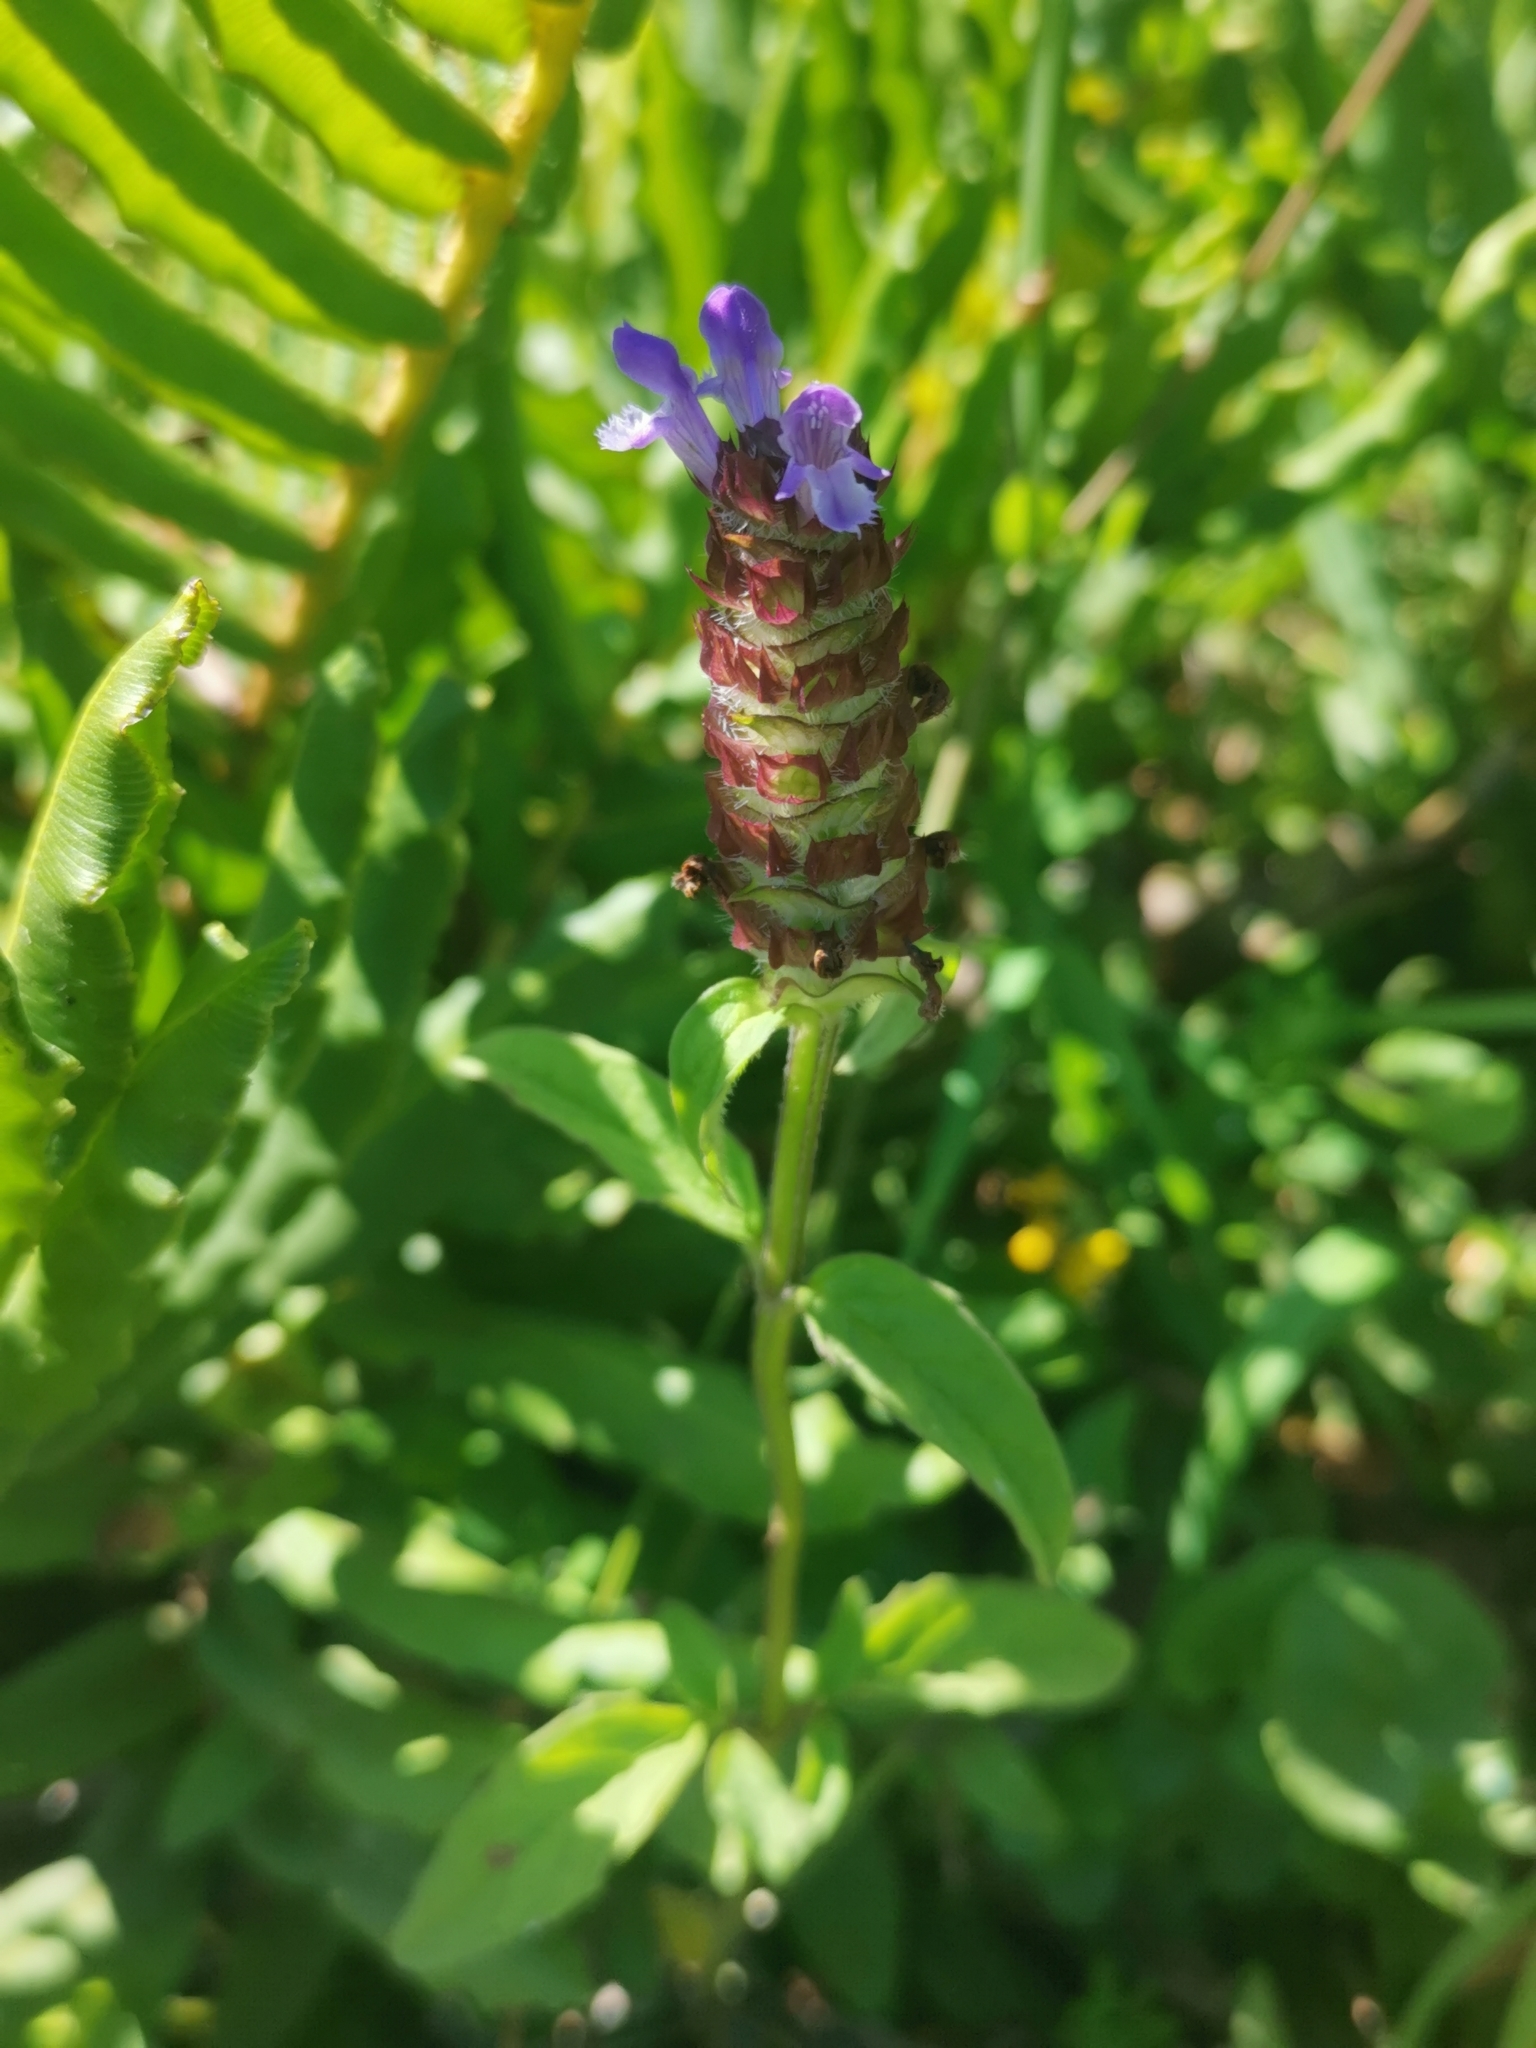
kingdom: Plantae
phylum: Tracheophyta
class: Magnoliopsida
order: Lamiales
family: Lamiaceae
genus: Prunella
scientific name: Prunella vulgaris
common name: Heal-all
